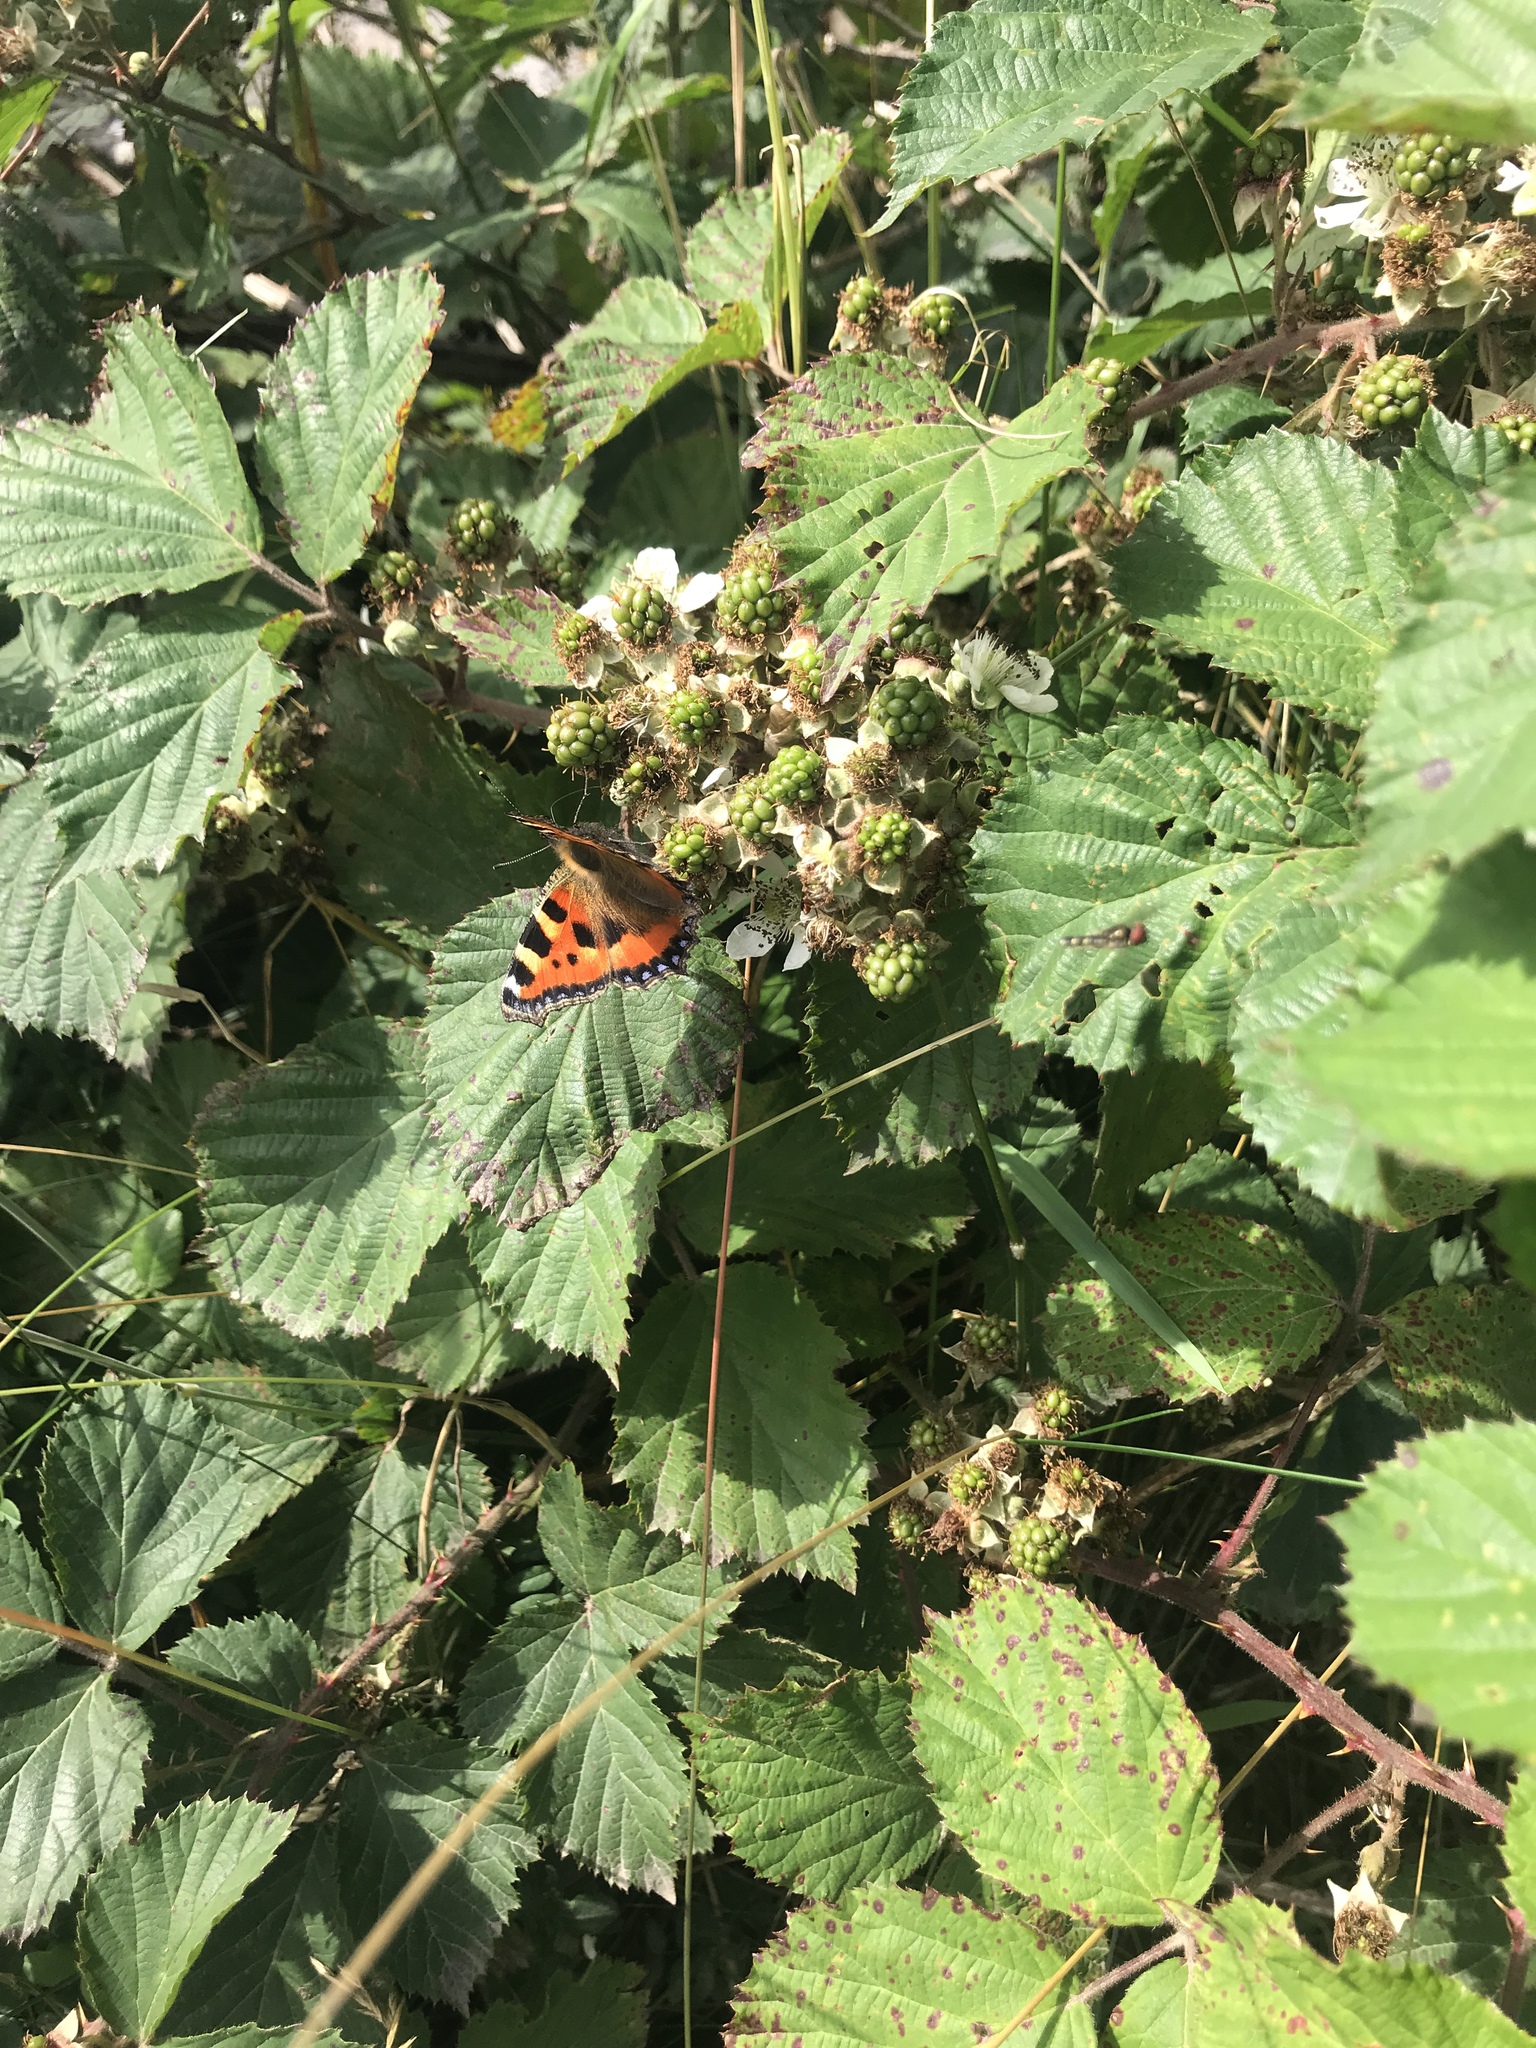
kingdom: Animalia
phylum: Arthropoda
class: Insecta
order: Lepidoptera
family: Nymphalidae
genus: Aglais
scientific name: Aglais urticae
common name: Small tortoiseshell
